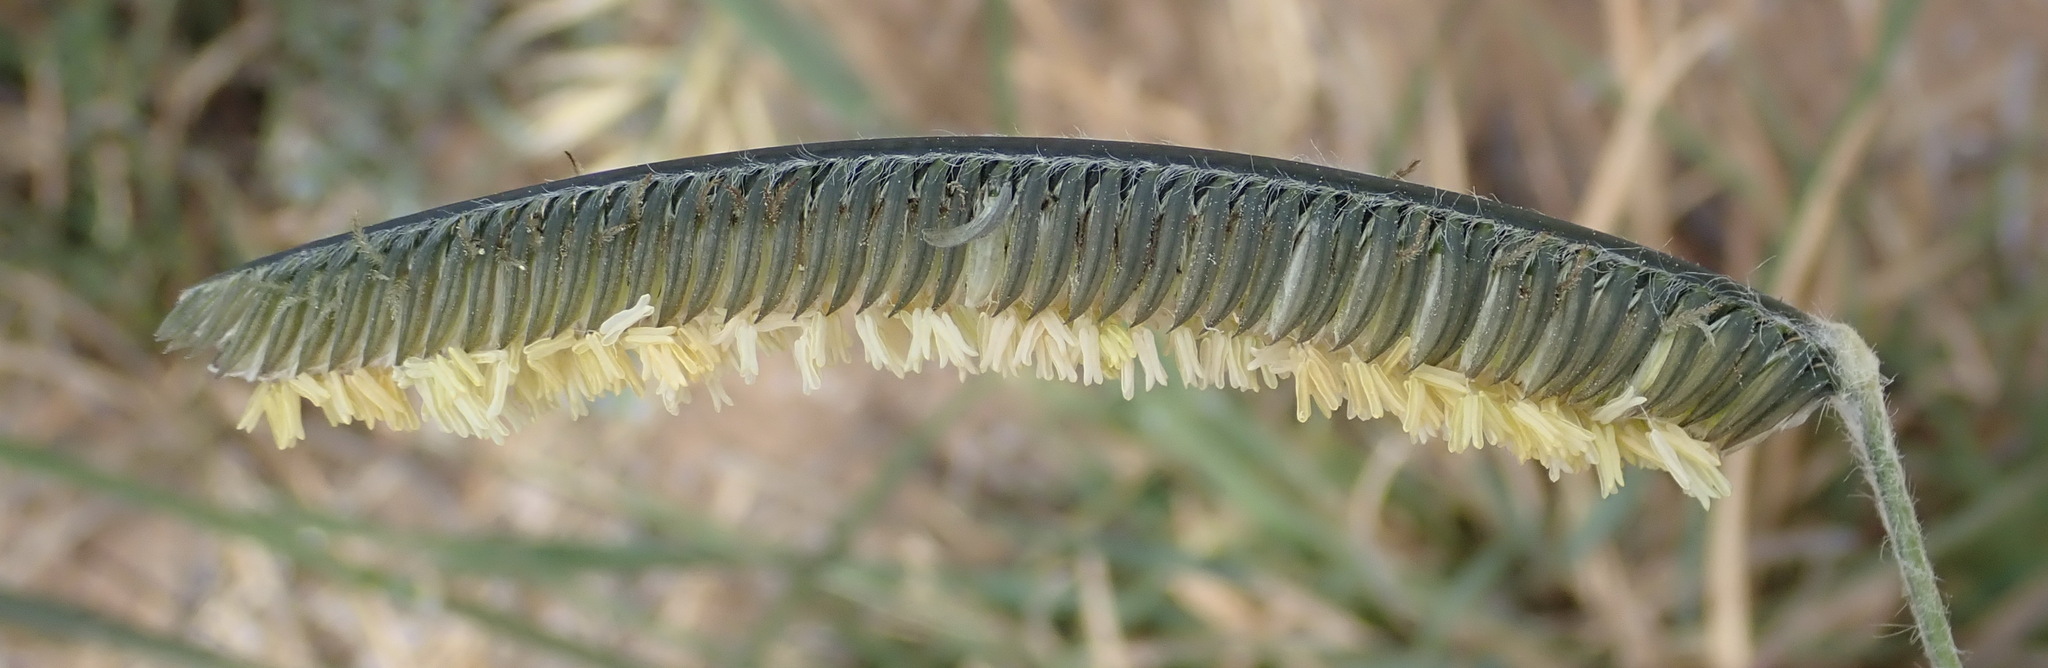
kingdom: Plantae
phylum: Tracheophyta
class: Liliopsida
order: Poales
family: Poaceae
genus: Harpochloa
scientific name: Harpochloa falx
